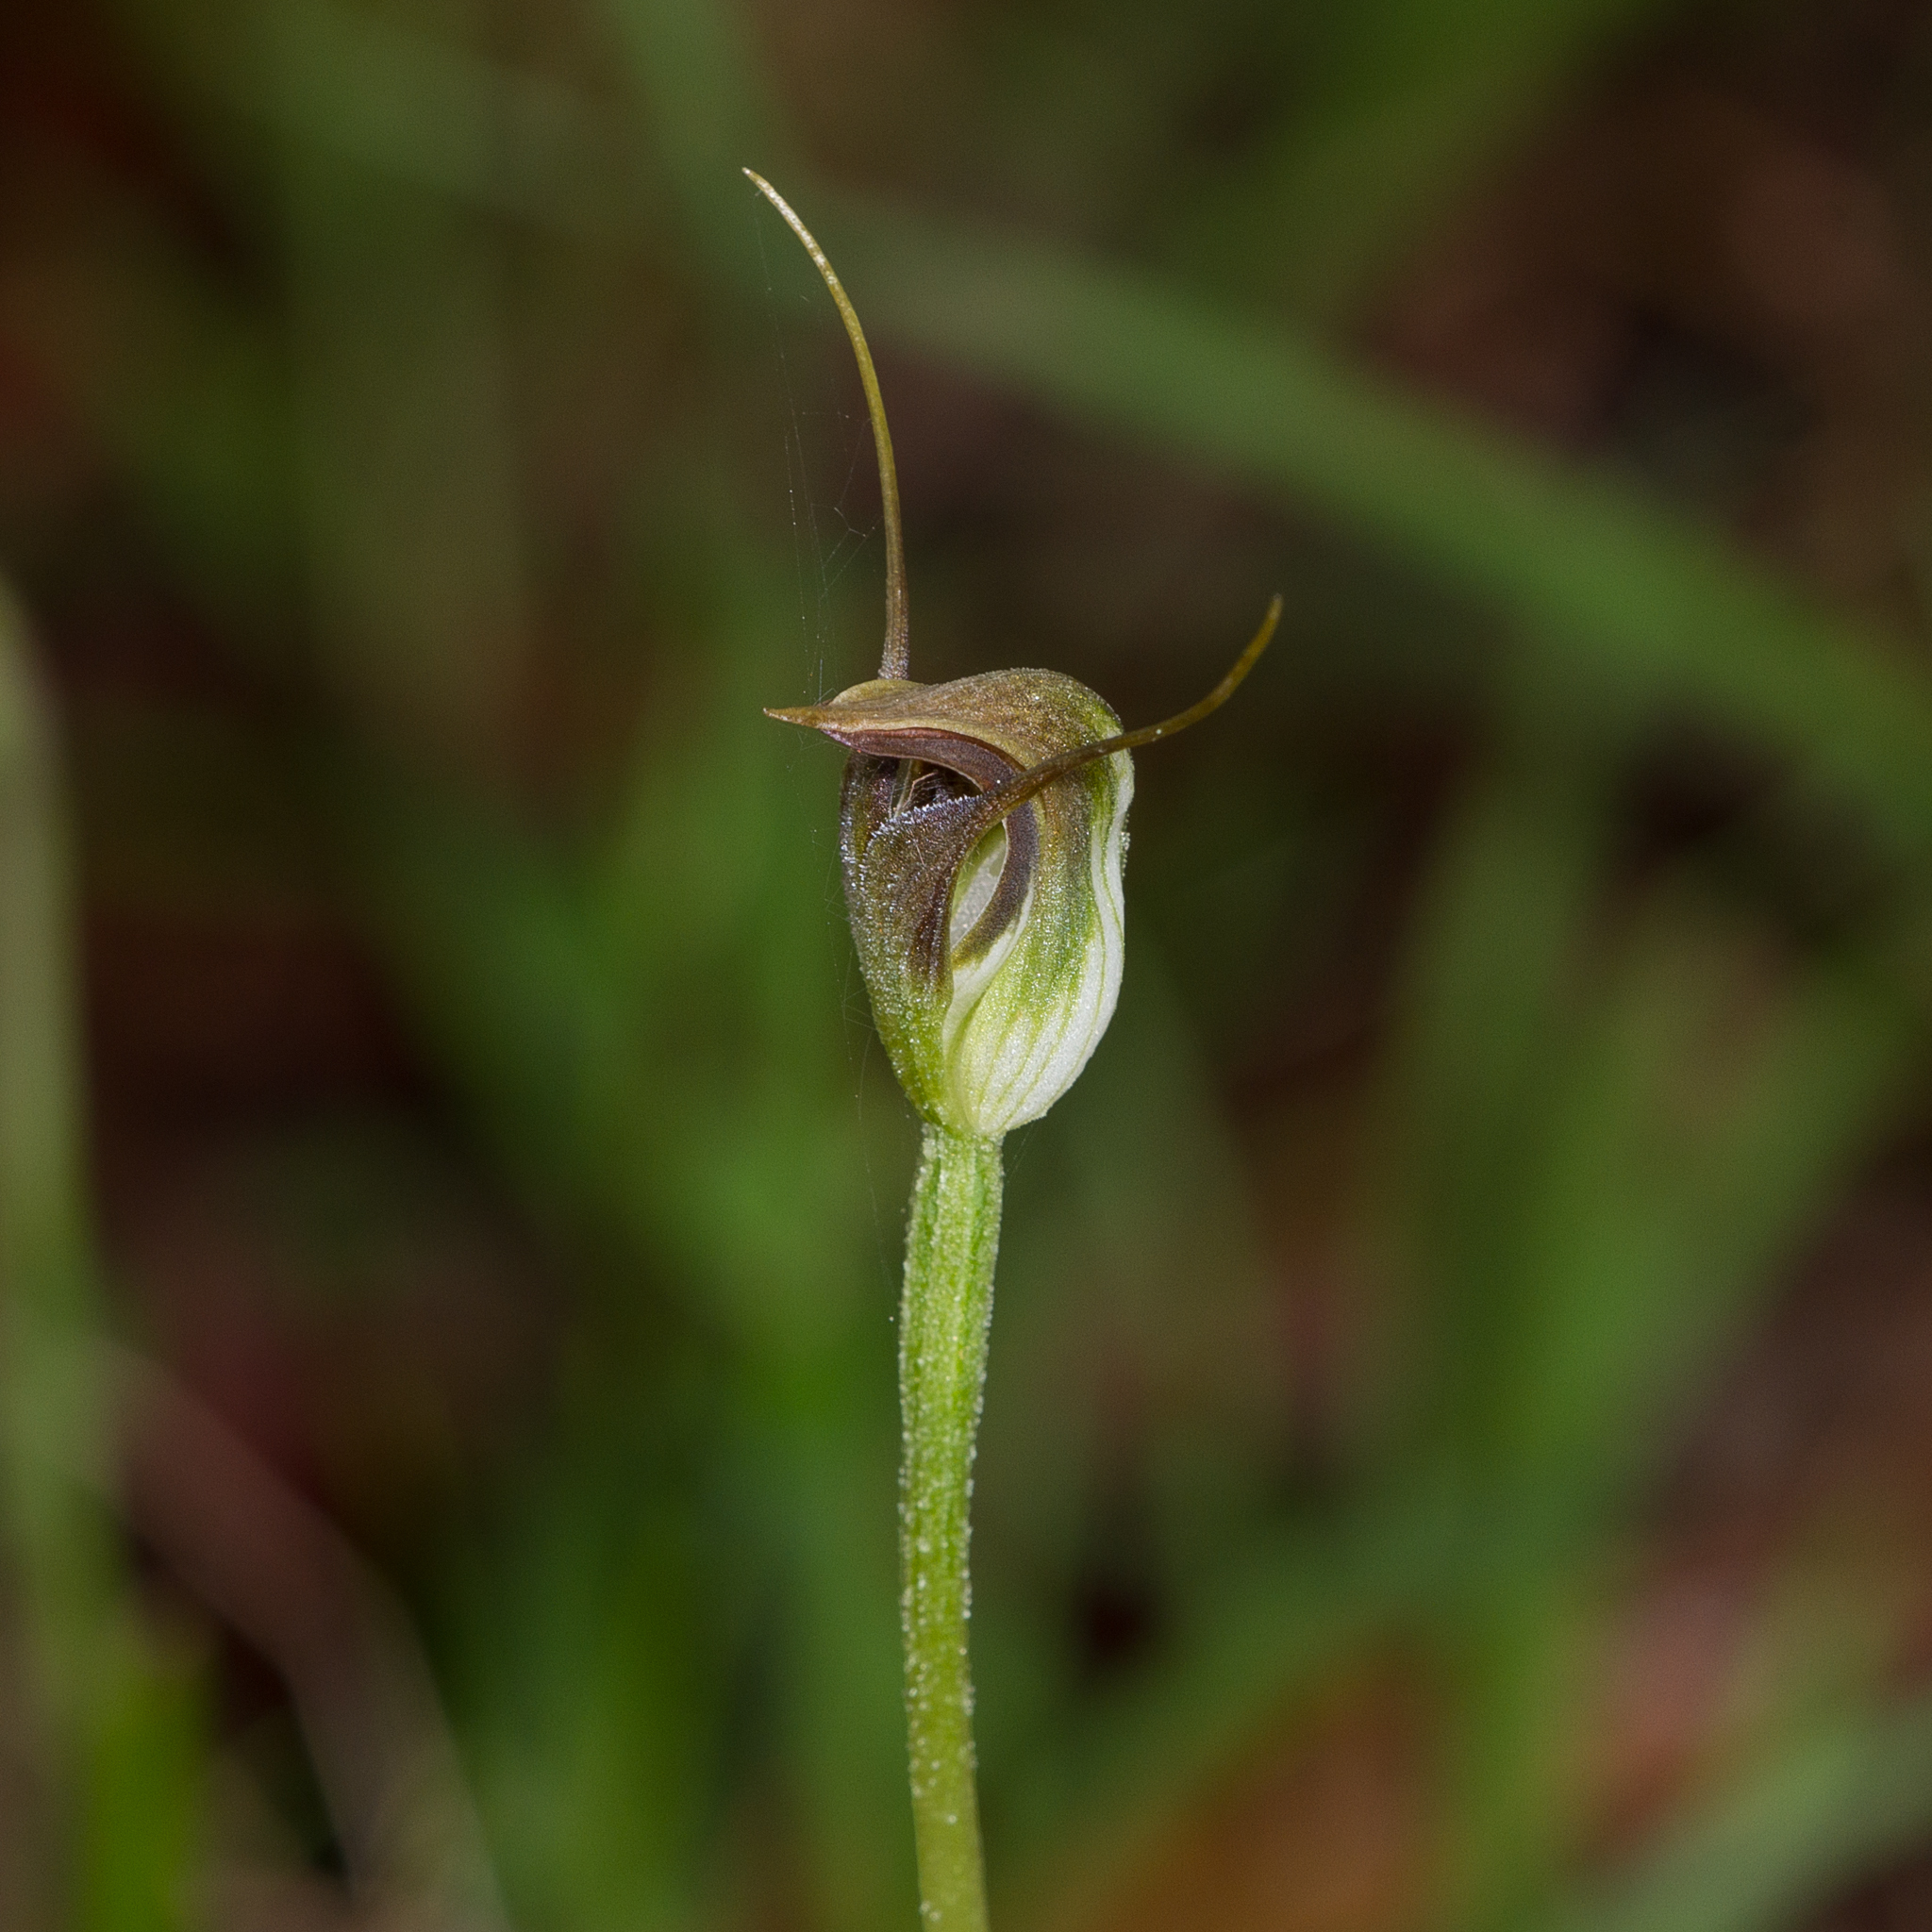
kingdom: Plantae
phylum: Tracheophyta
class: Liliopsida
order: Asparagales
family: Orchidaceae
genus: Pterostylis
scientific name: Pterostylis pedunculata
